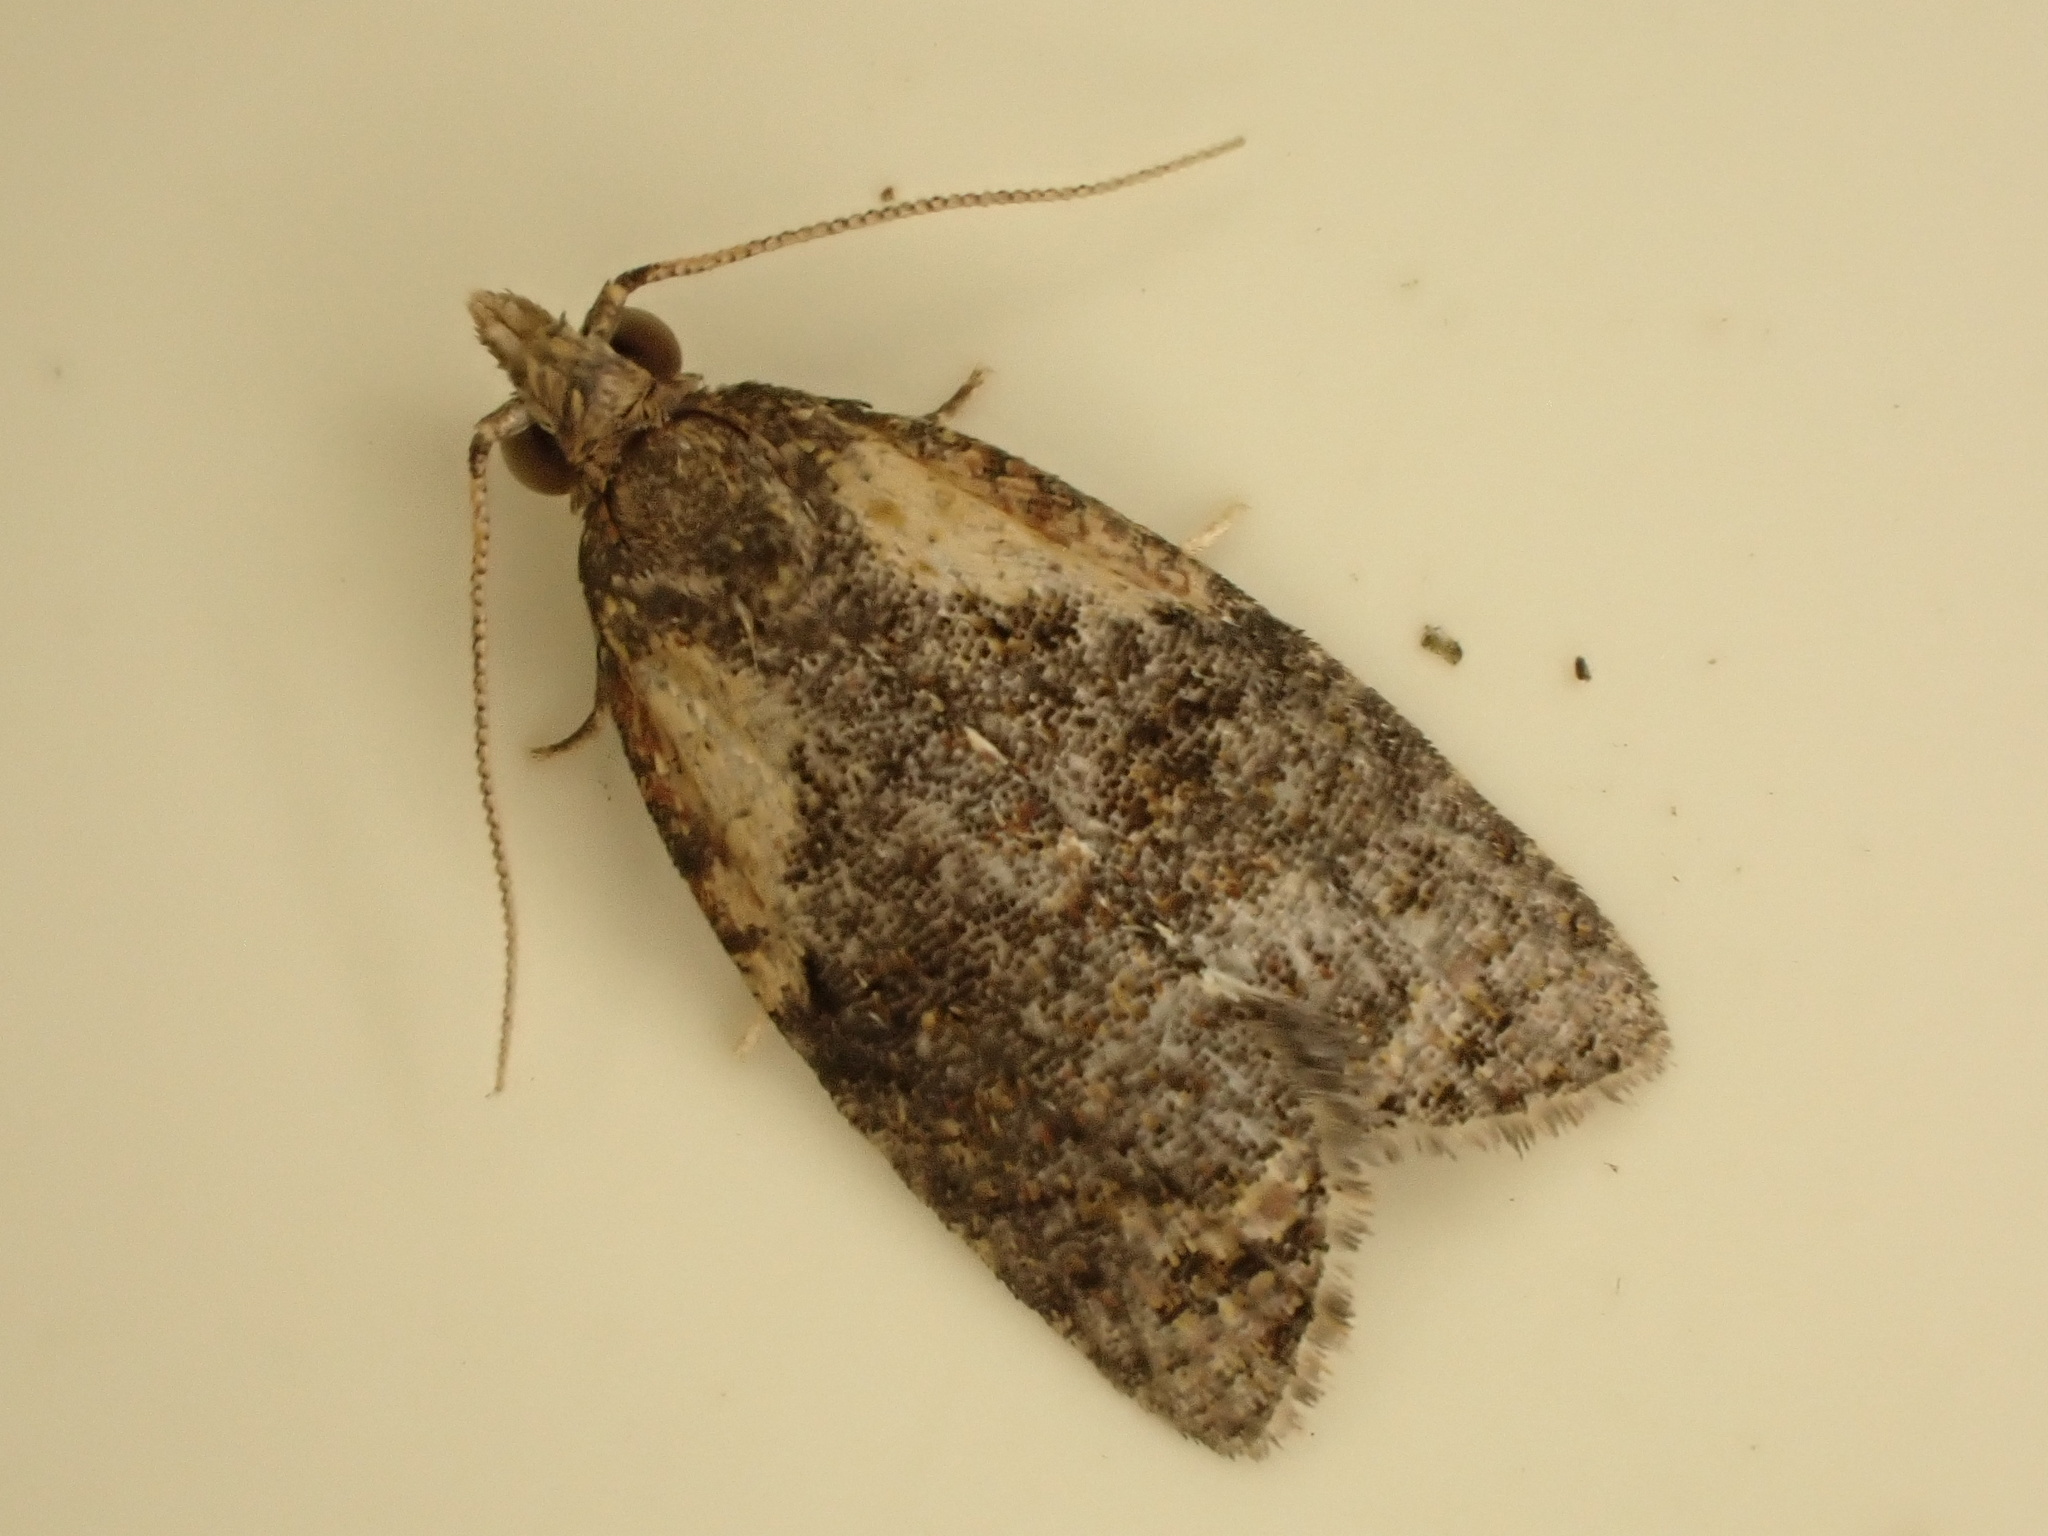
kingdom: Animalia
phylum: Arthropoda
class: Insecta
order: Lepidoptera
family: Tortricidae
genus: Capua
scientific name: Capua intractana
